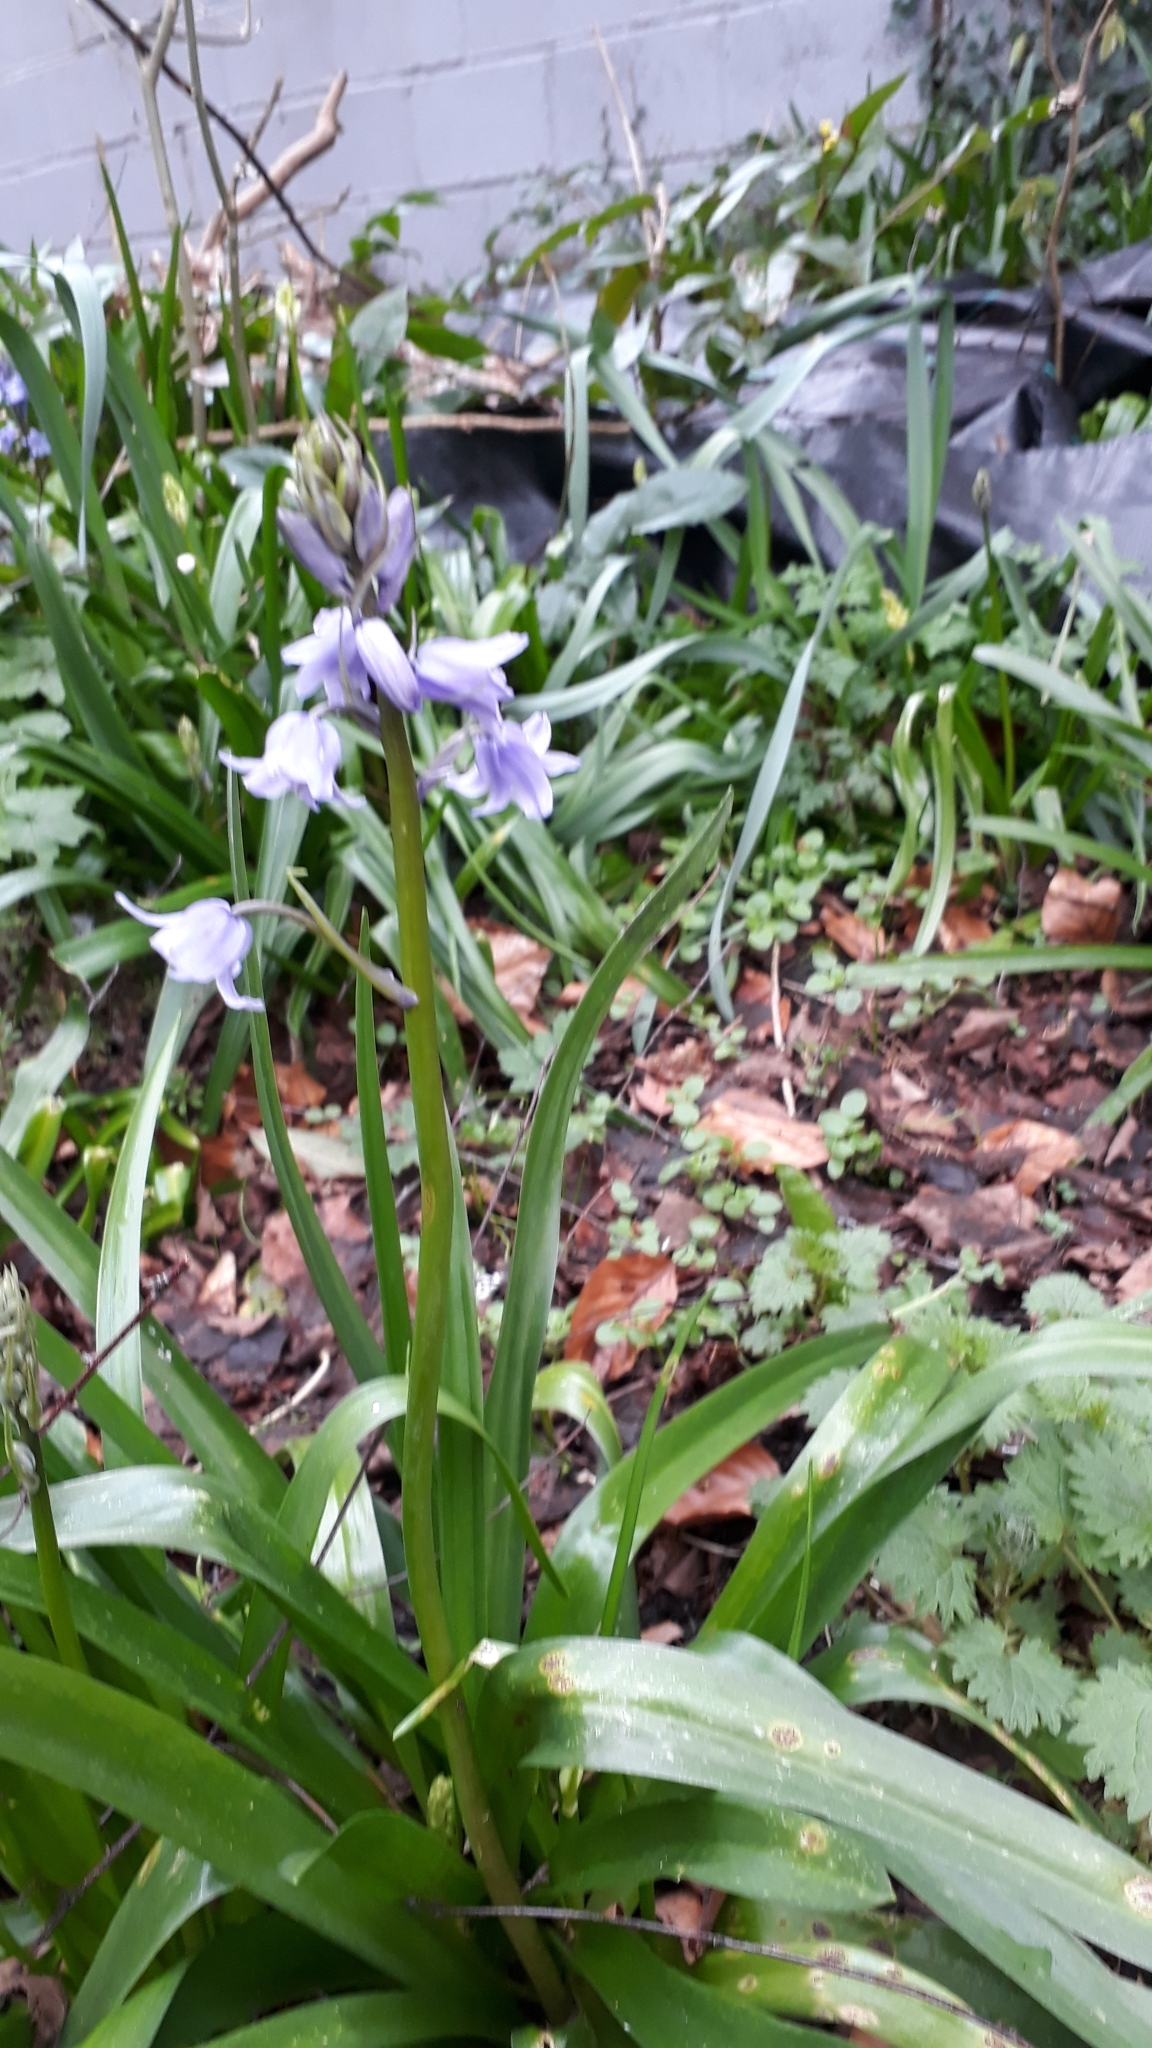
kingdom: Plantae
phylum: Tracheophyta
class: Liliopsida
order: Asparagales
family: Asparagaceae
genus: Hyacinthoides
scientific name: Hyacinthoides hispanica
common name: Spanish bluebell
